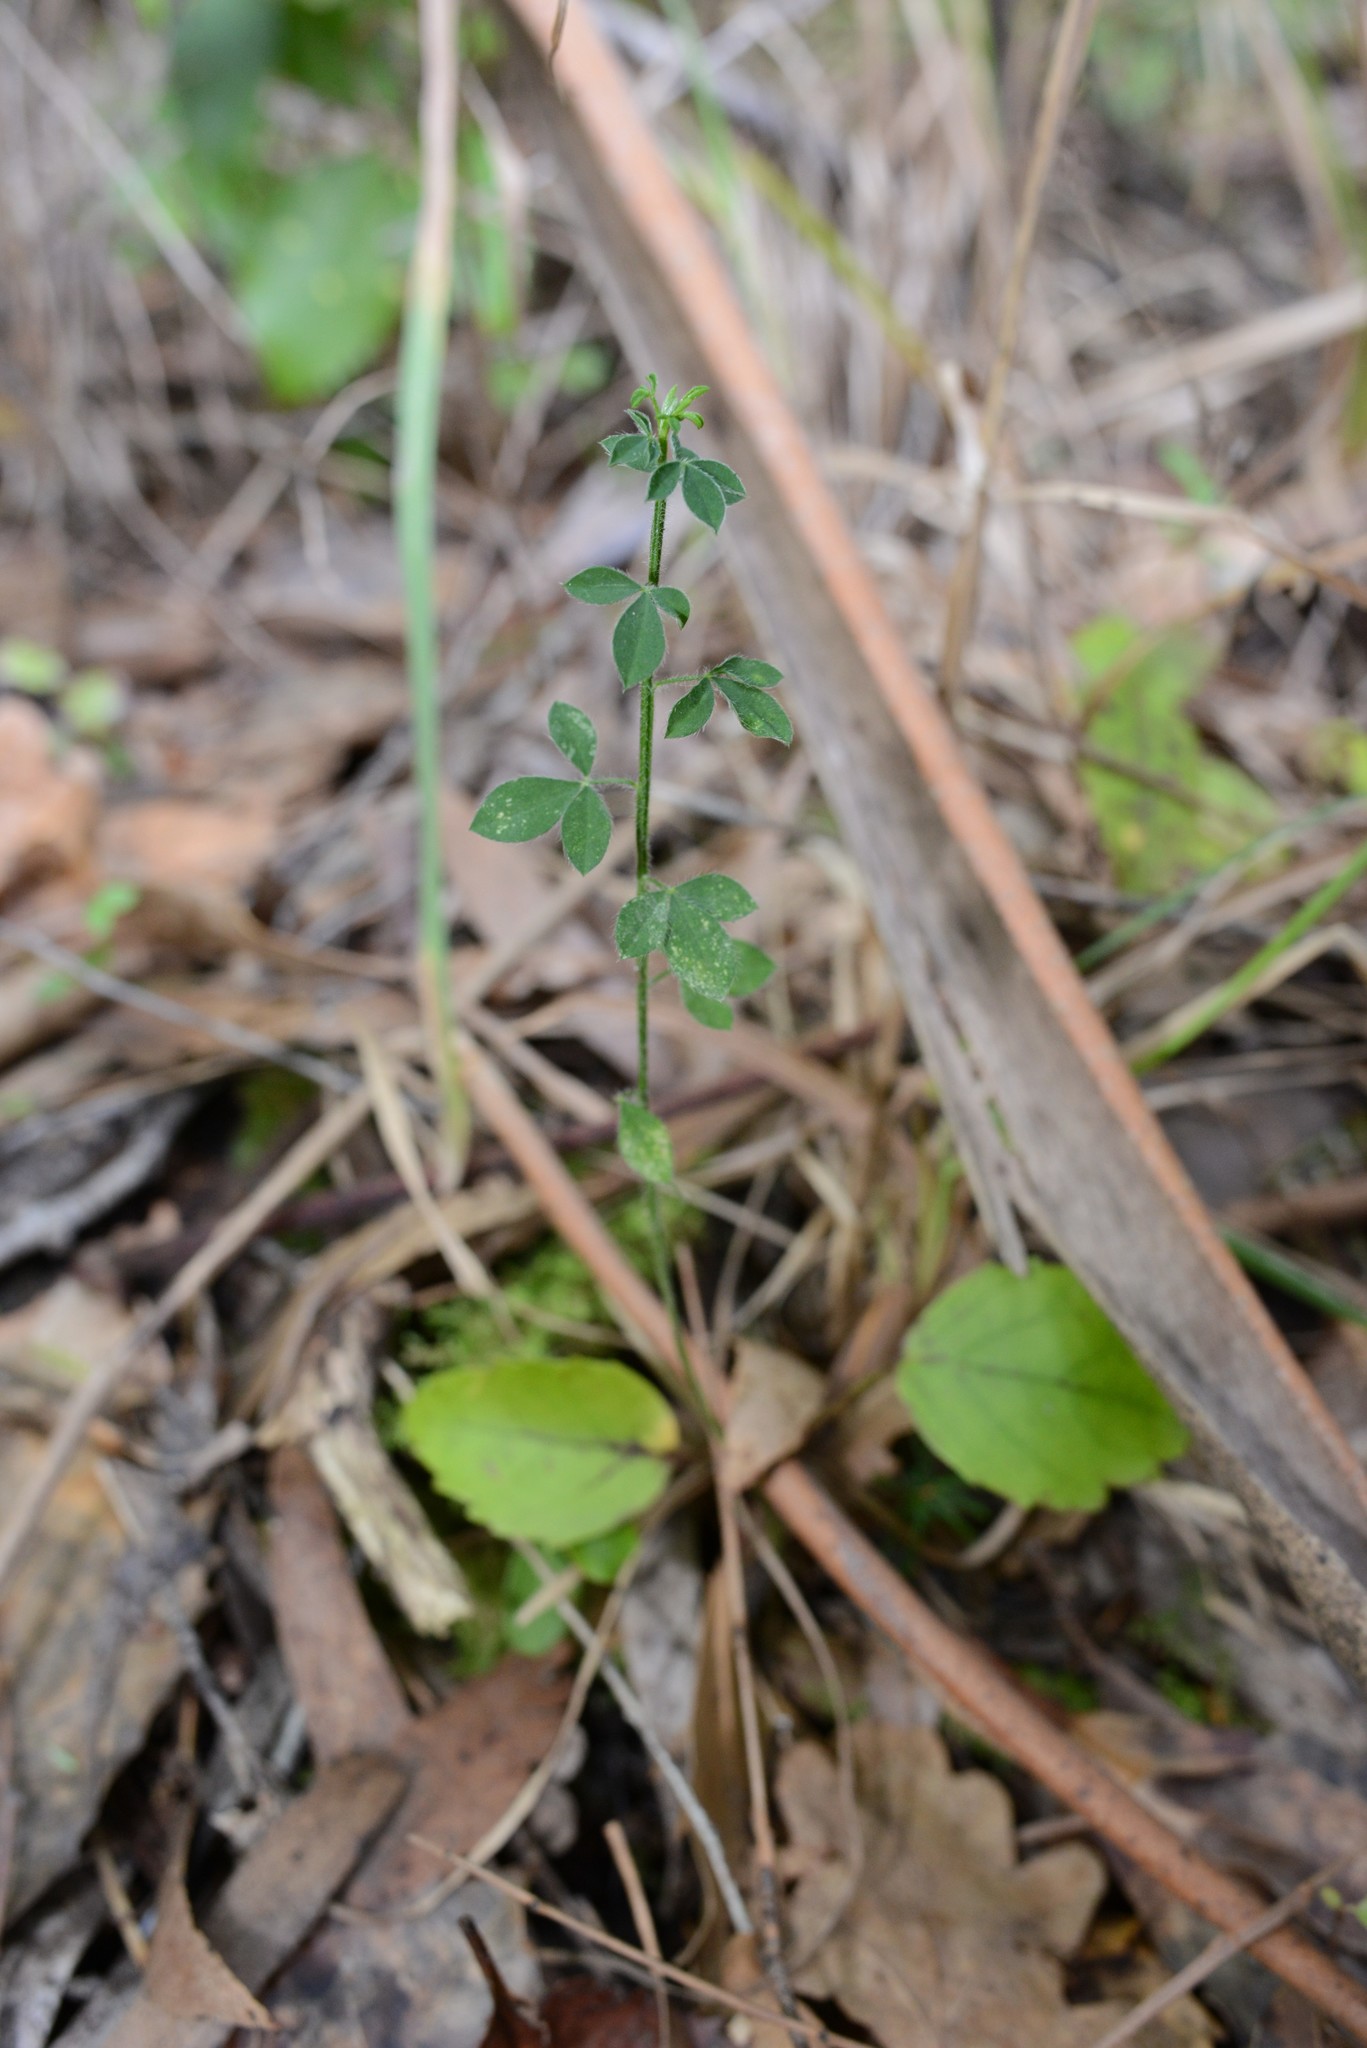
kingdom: Plantae
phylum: Tracheophyta
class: Magnoliopsida
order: Fabales
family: Fabaceae
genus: Cytisus
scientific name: Cytisus scoparius
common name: Scotch broom
